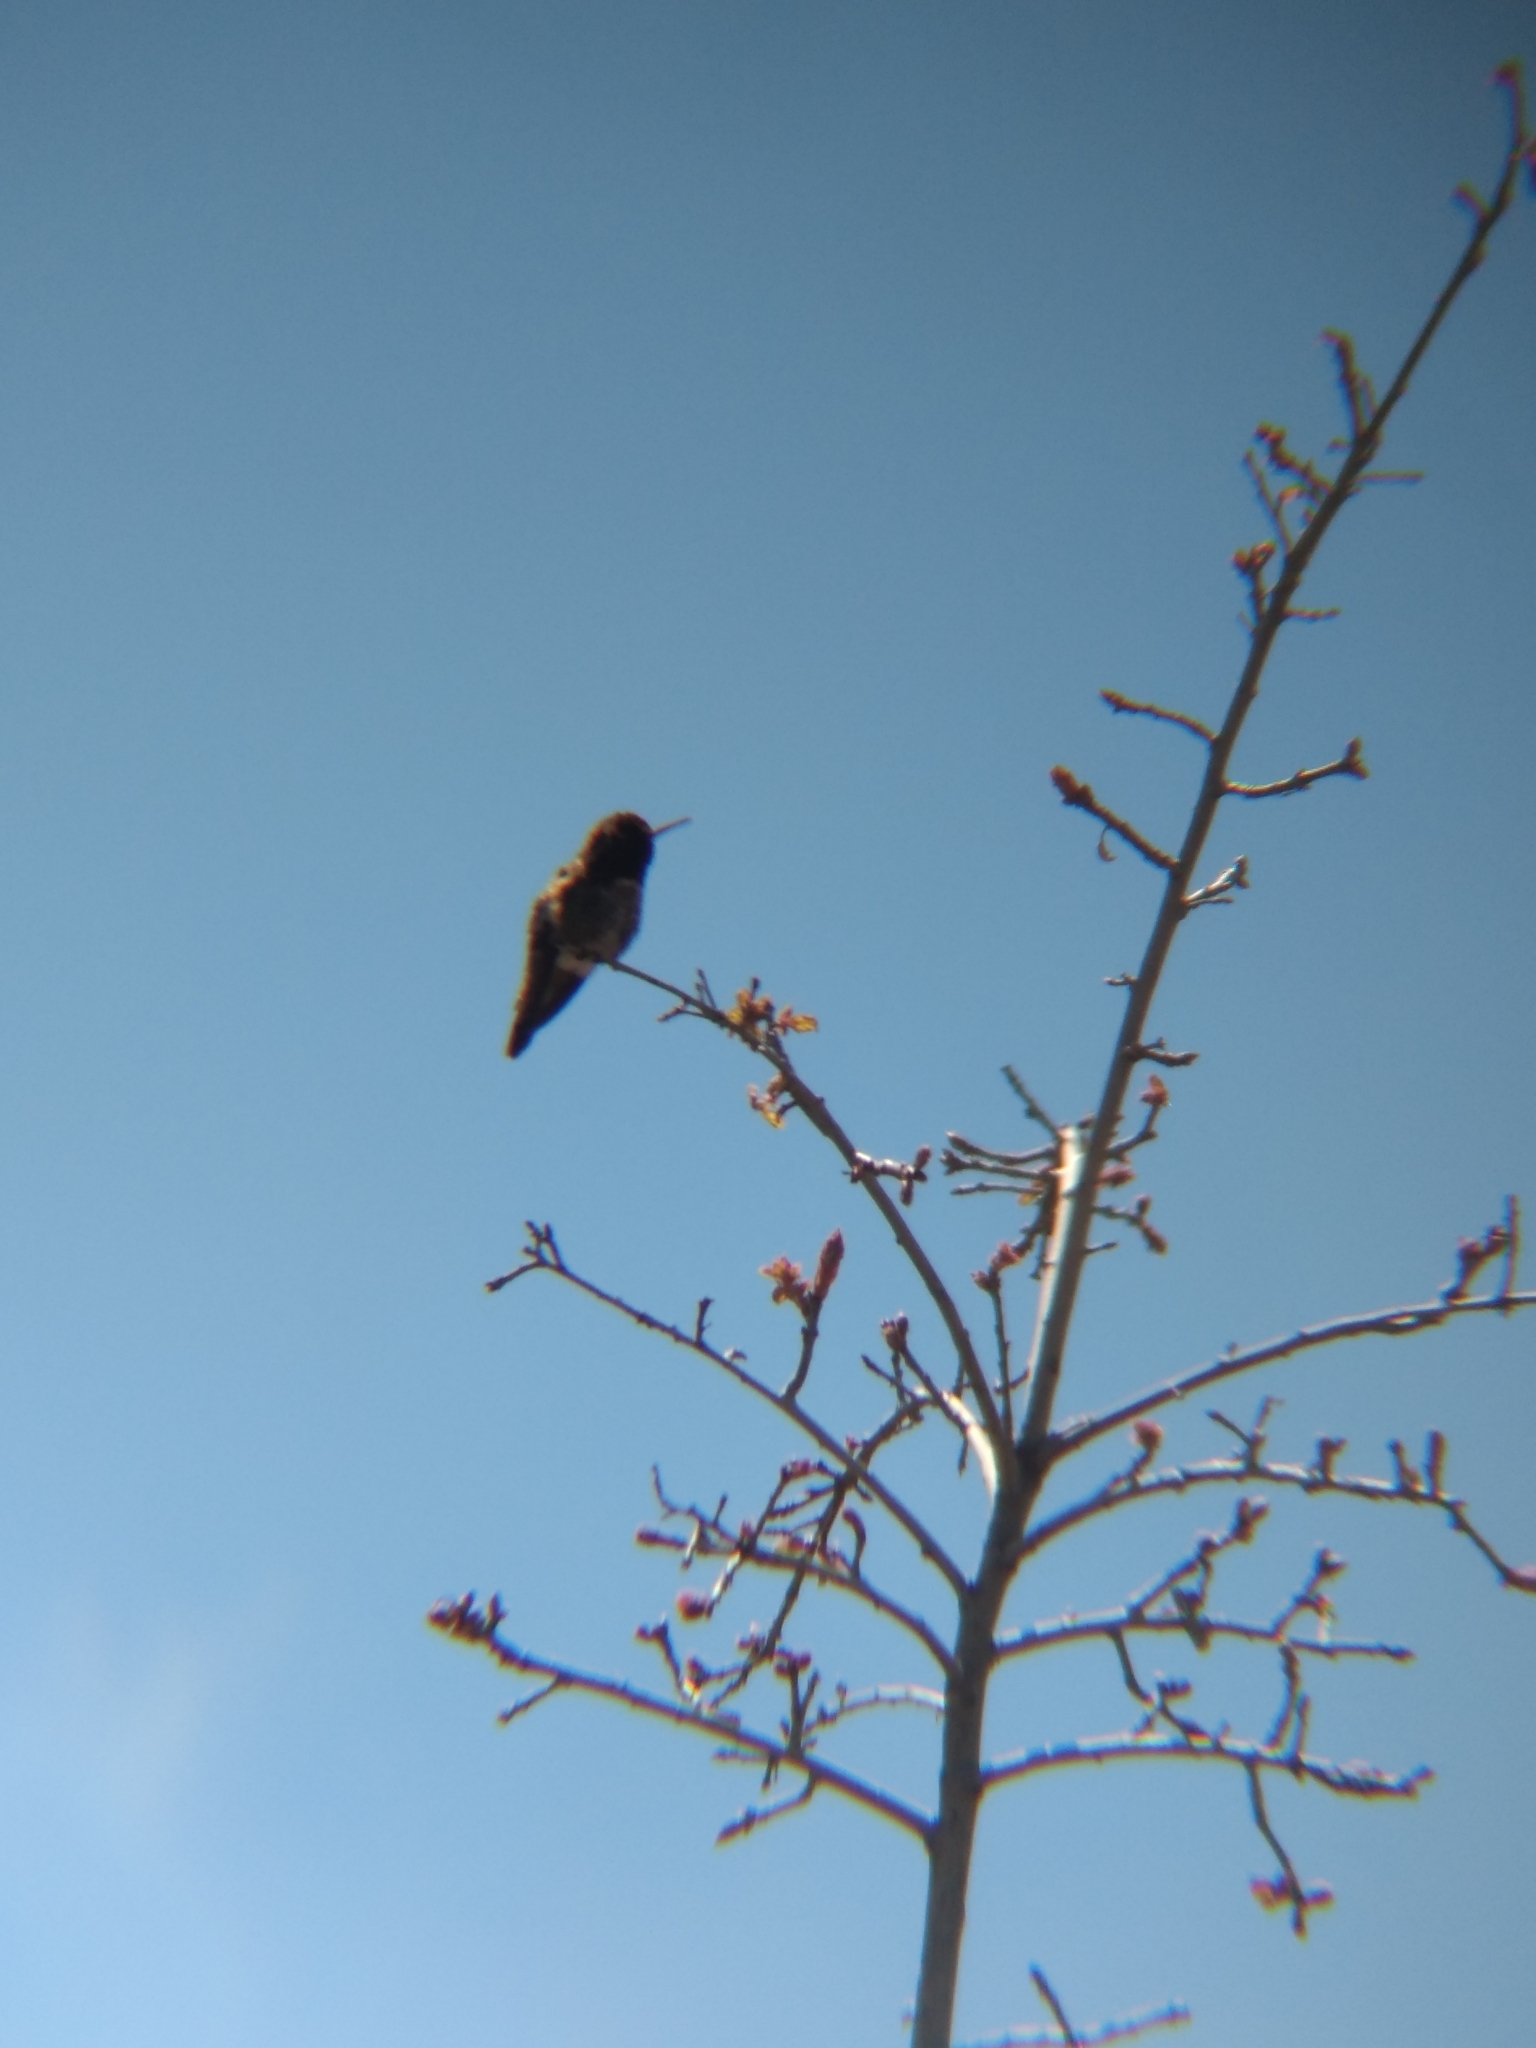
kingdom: Animalia
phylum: Chordata
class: Aves
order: Apodiformes
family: Trochilidae
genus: Calypte
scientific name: Calypte anna
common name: Anna's hummingbird
